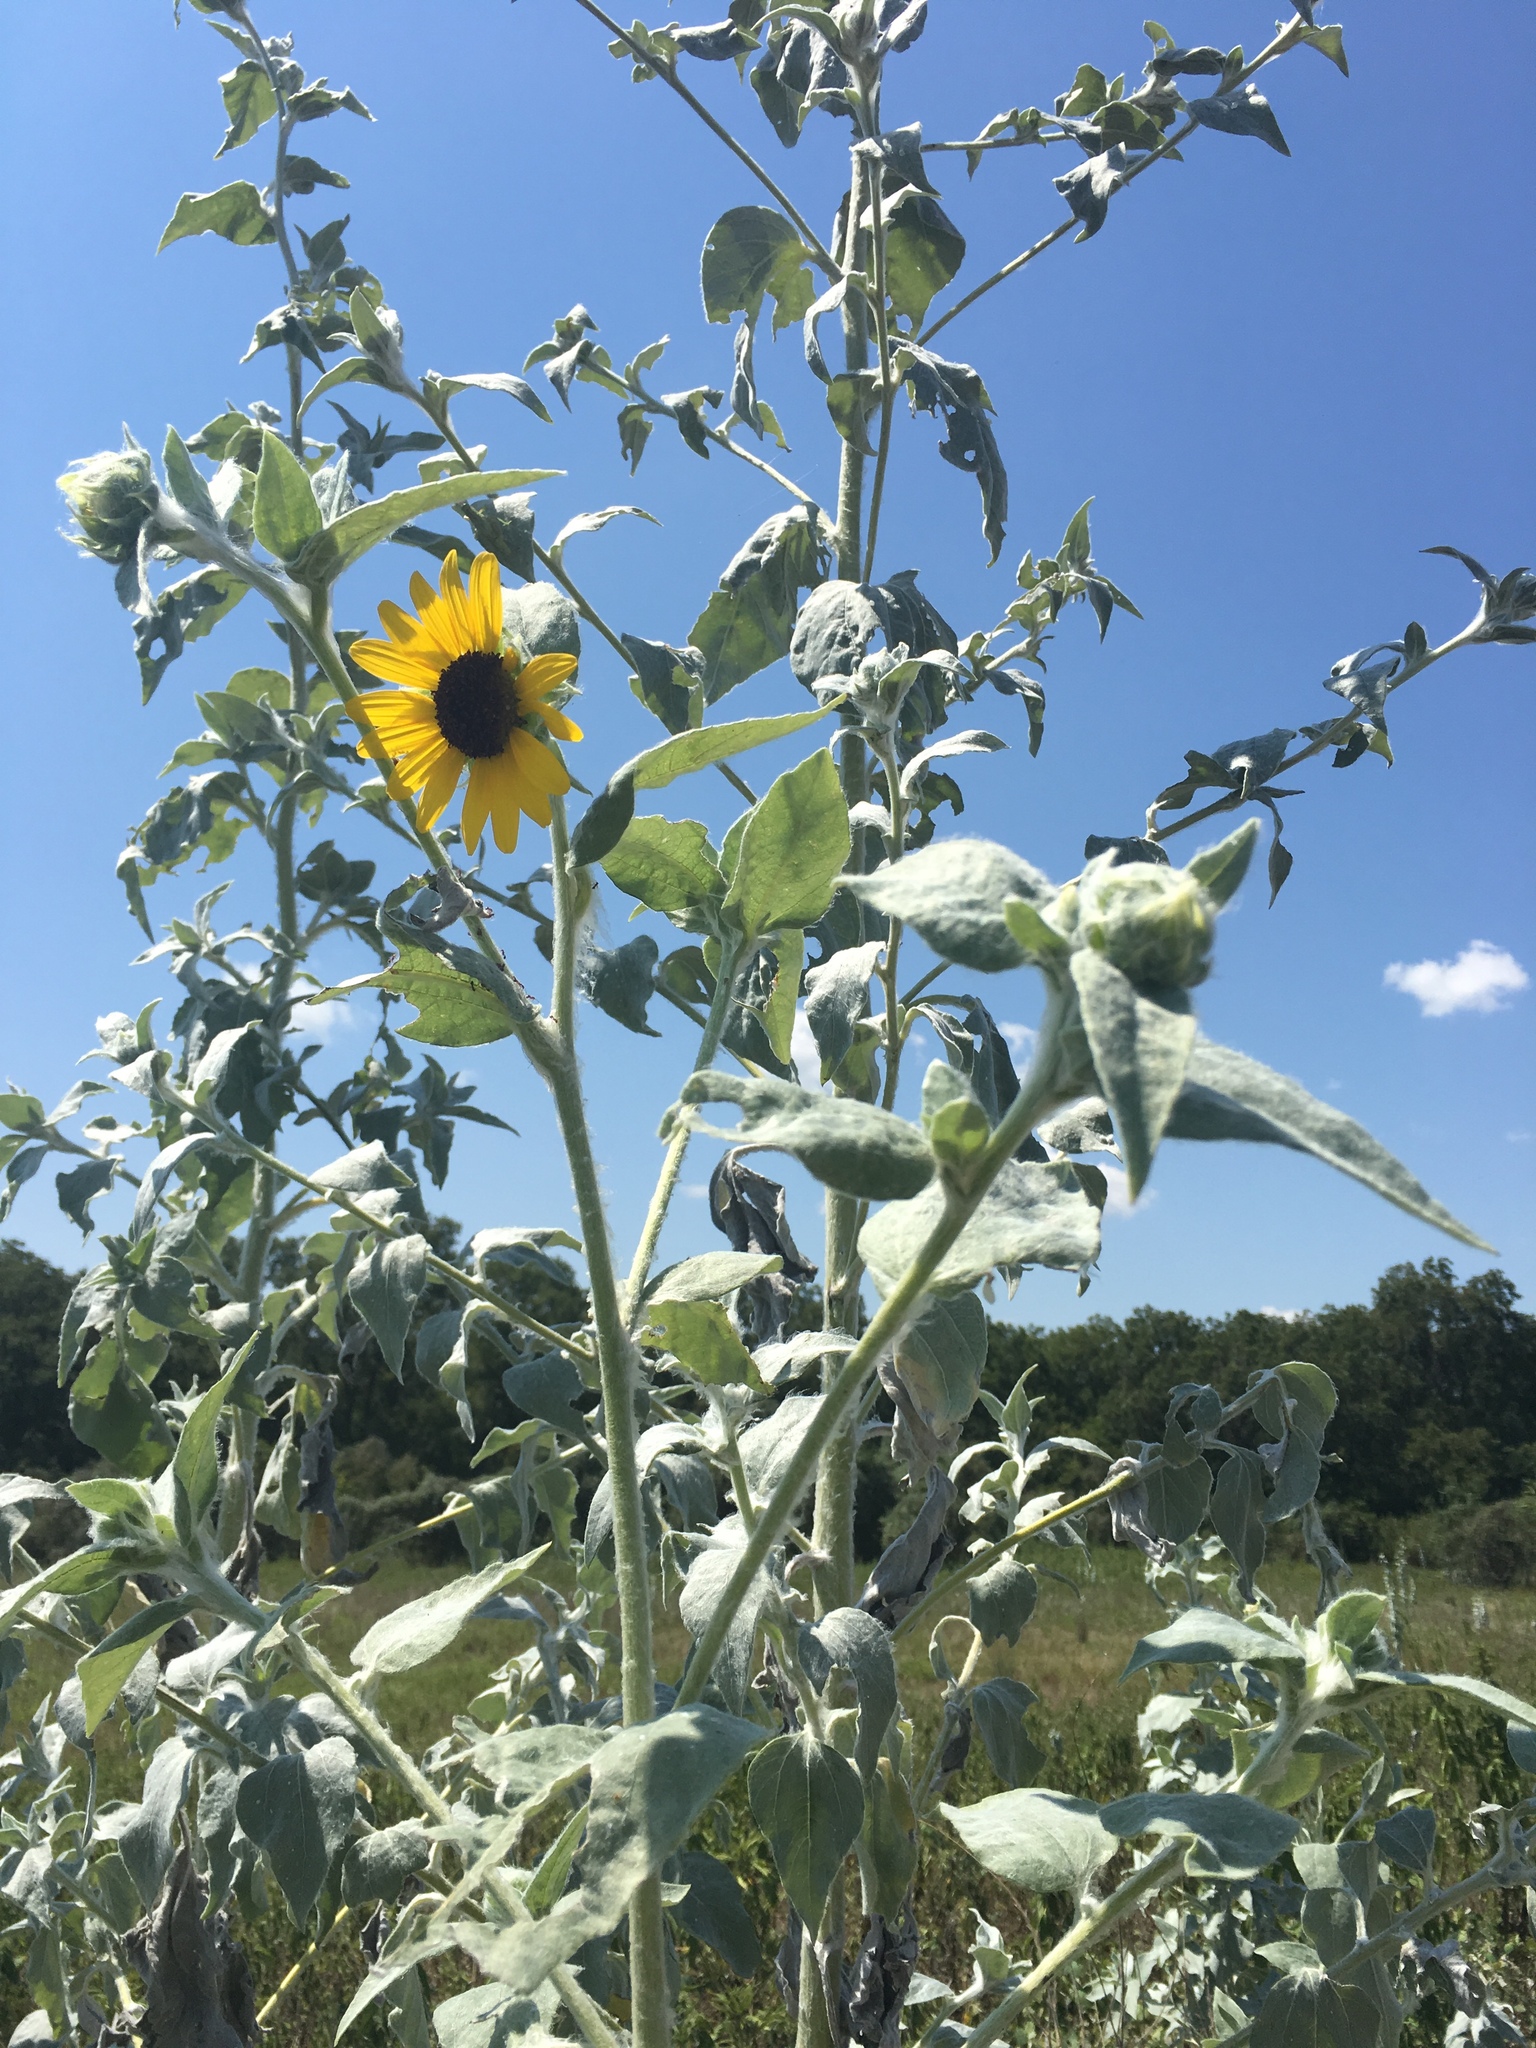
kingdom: Plantae
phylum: Tracheophyta
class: Magnoliopsida
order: Asterales
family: Asteraceae
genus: Helianthus
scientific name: Helianthus argophyllus
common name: Silverleaf sunflower
